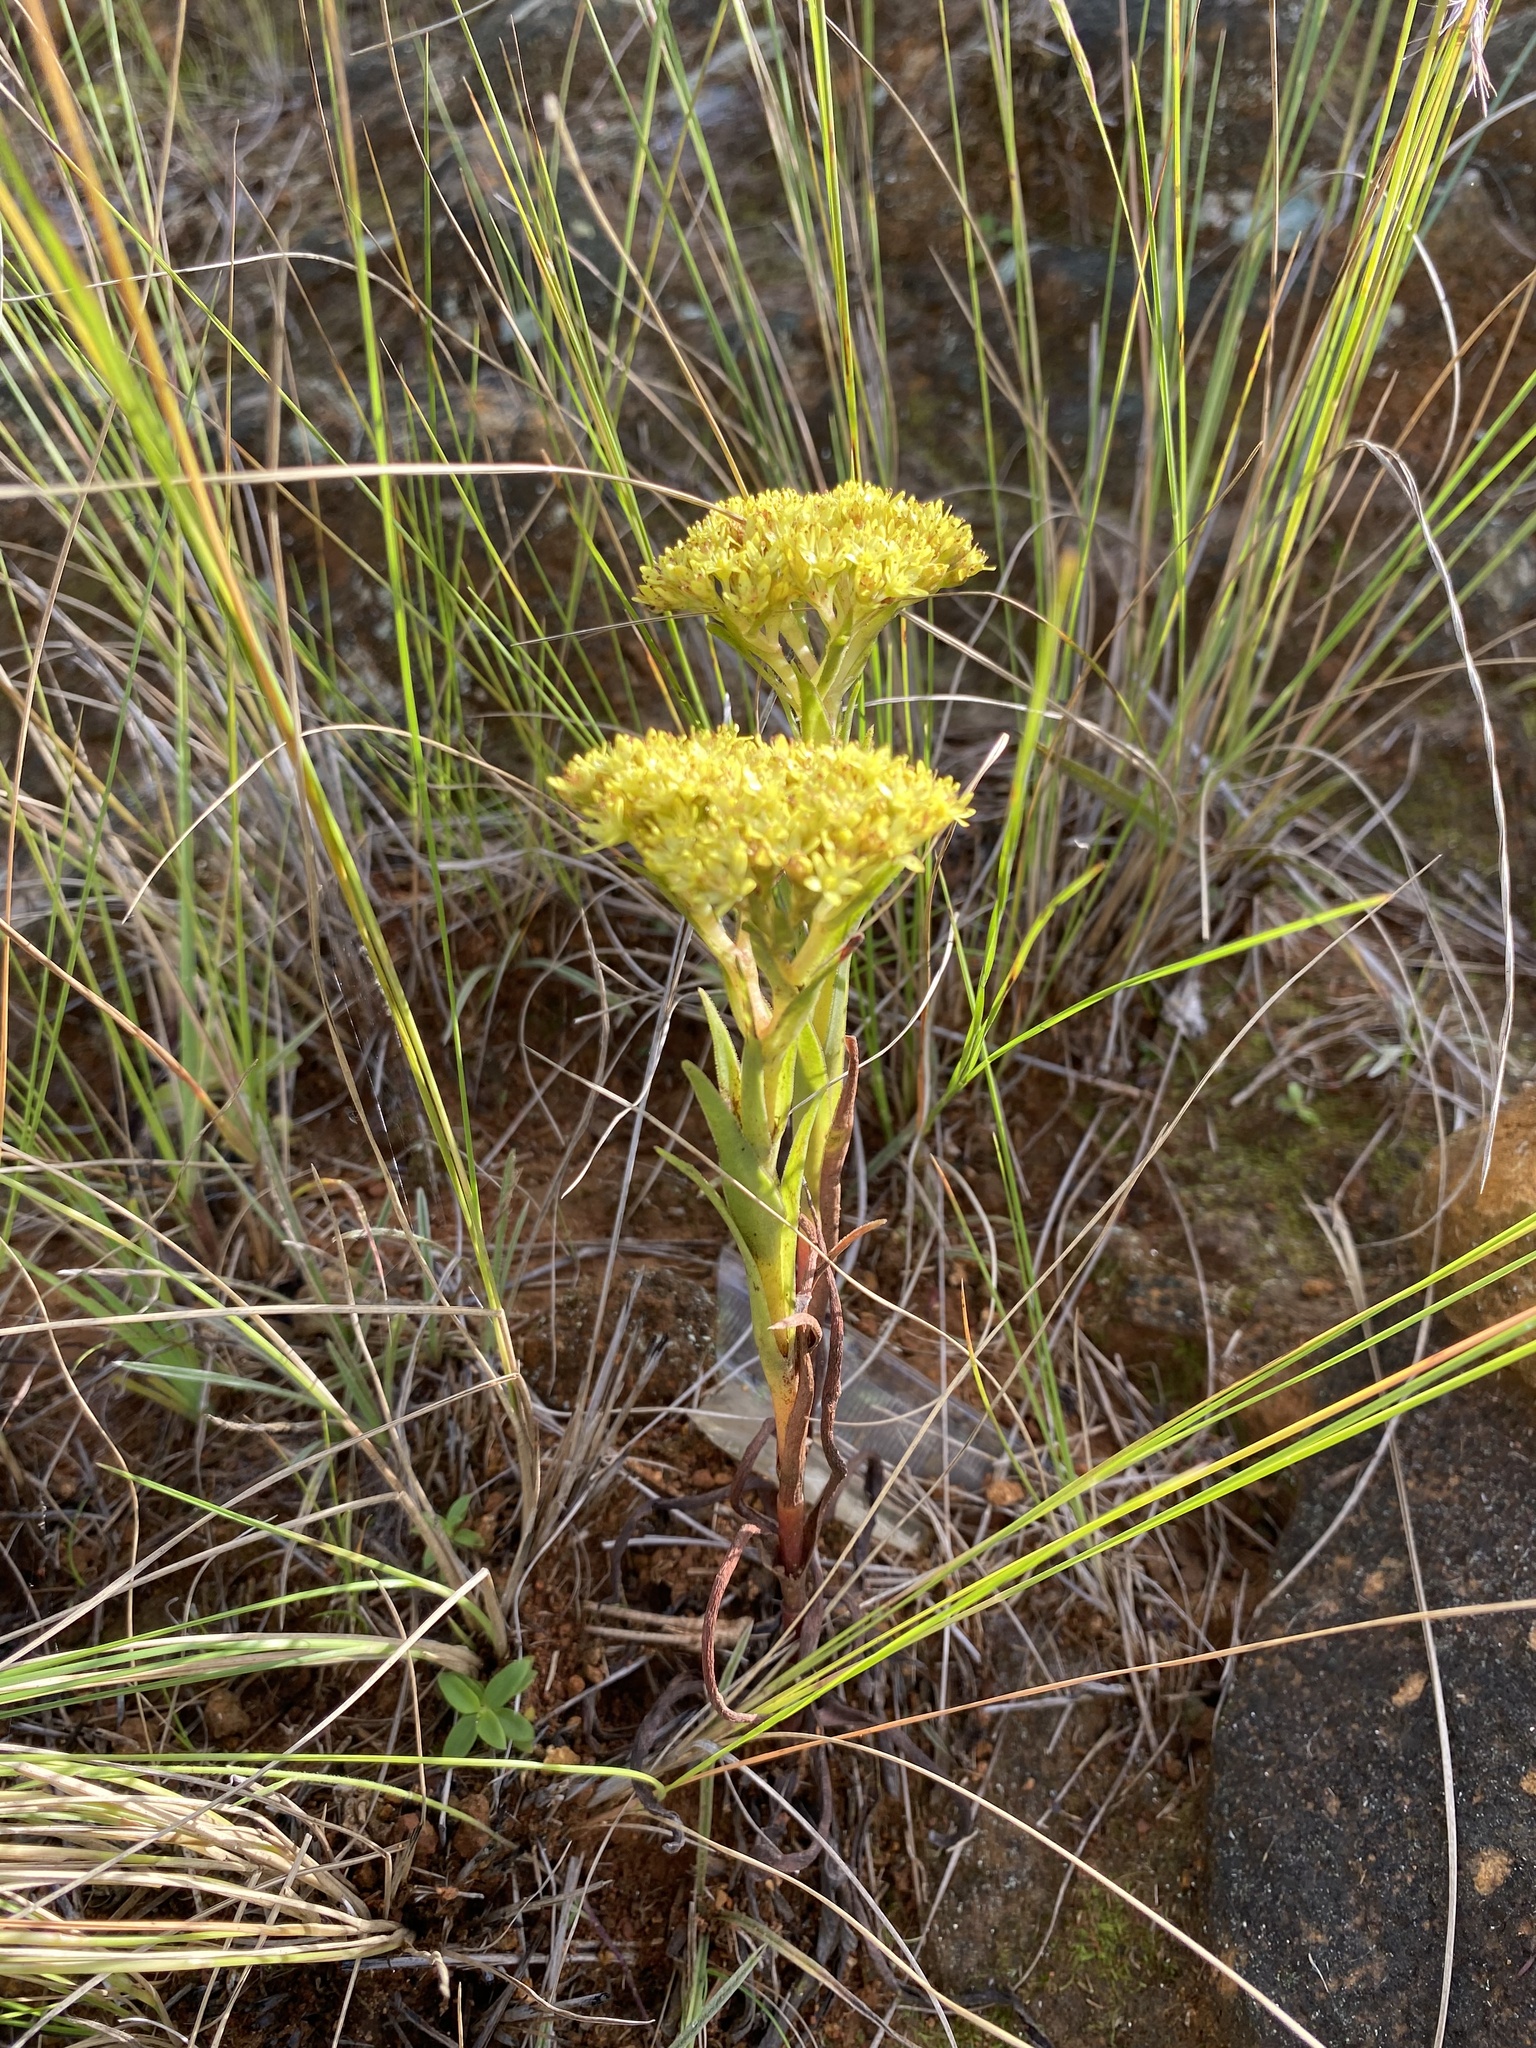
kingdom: Plantae
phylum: Tracheophyta
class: Magnoliopsida
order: Saxifragales
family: Crassulaceae
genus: Crassula
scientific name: Crassula vaginata
